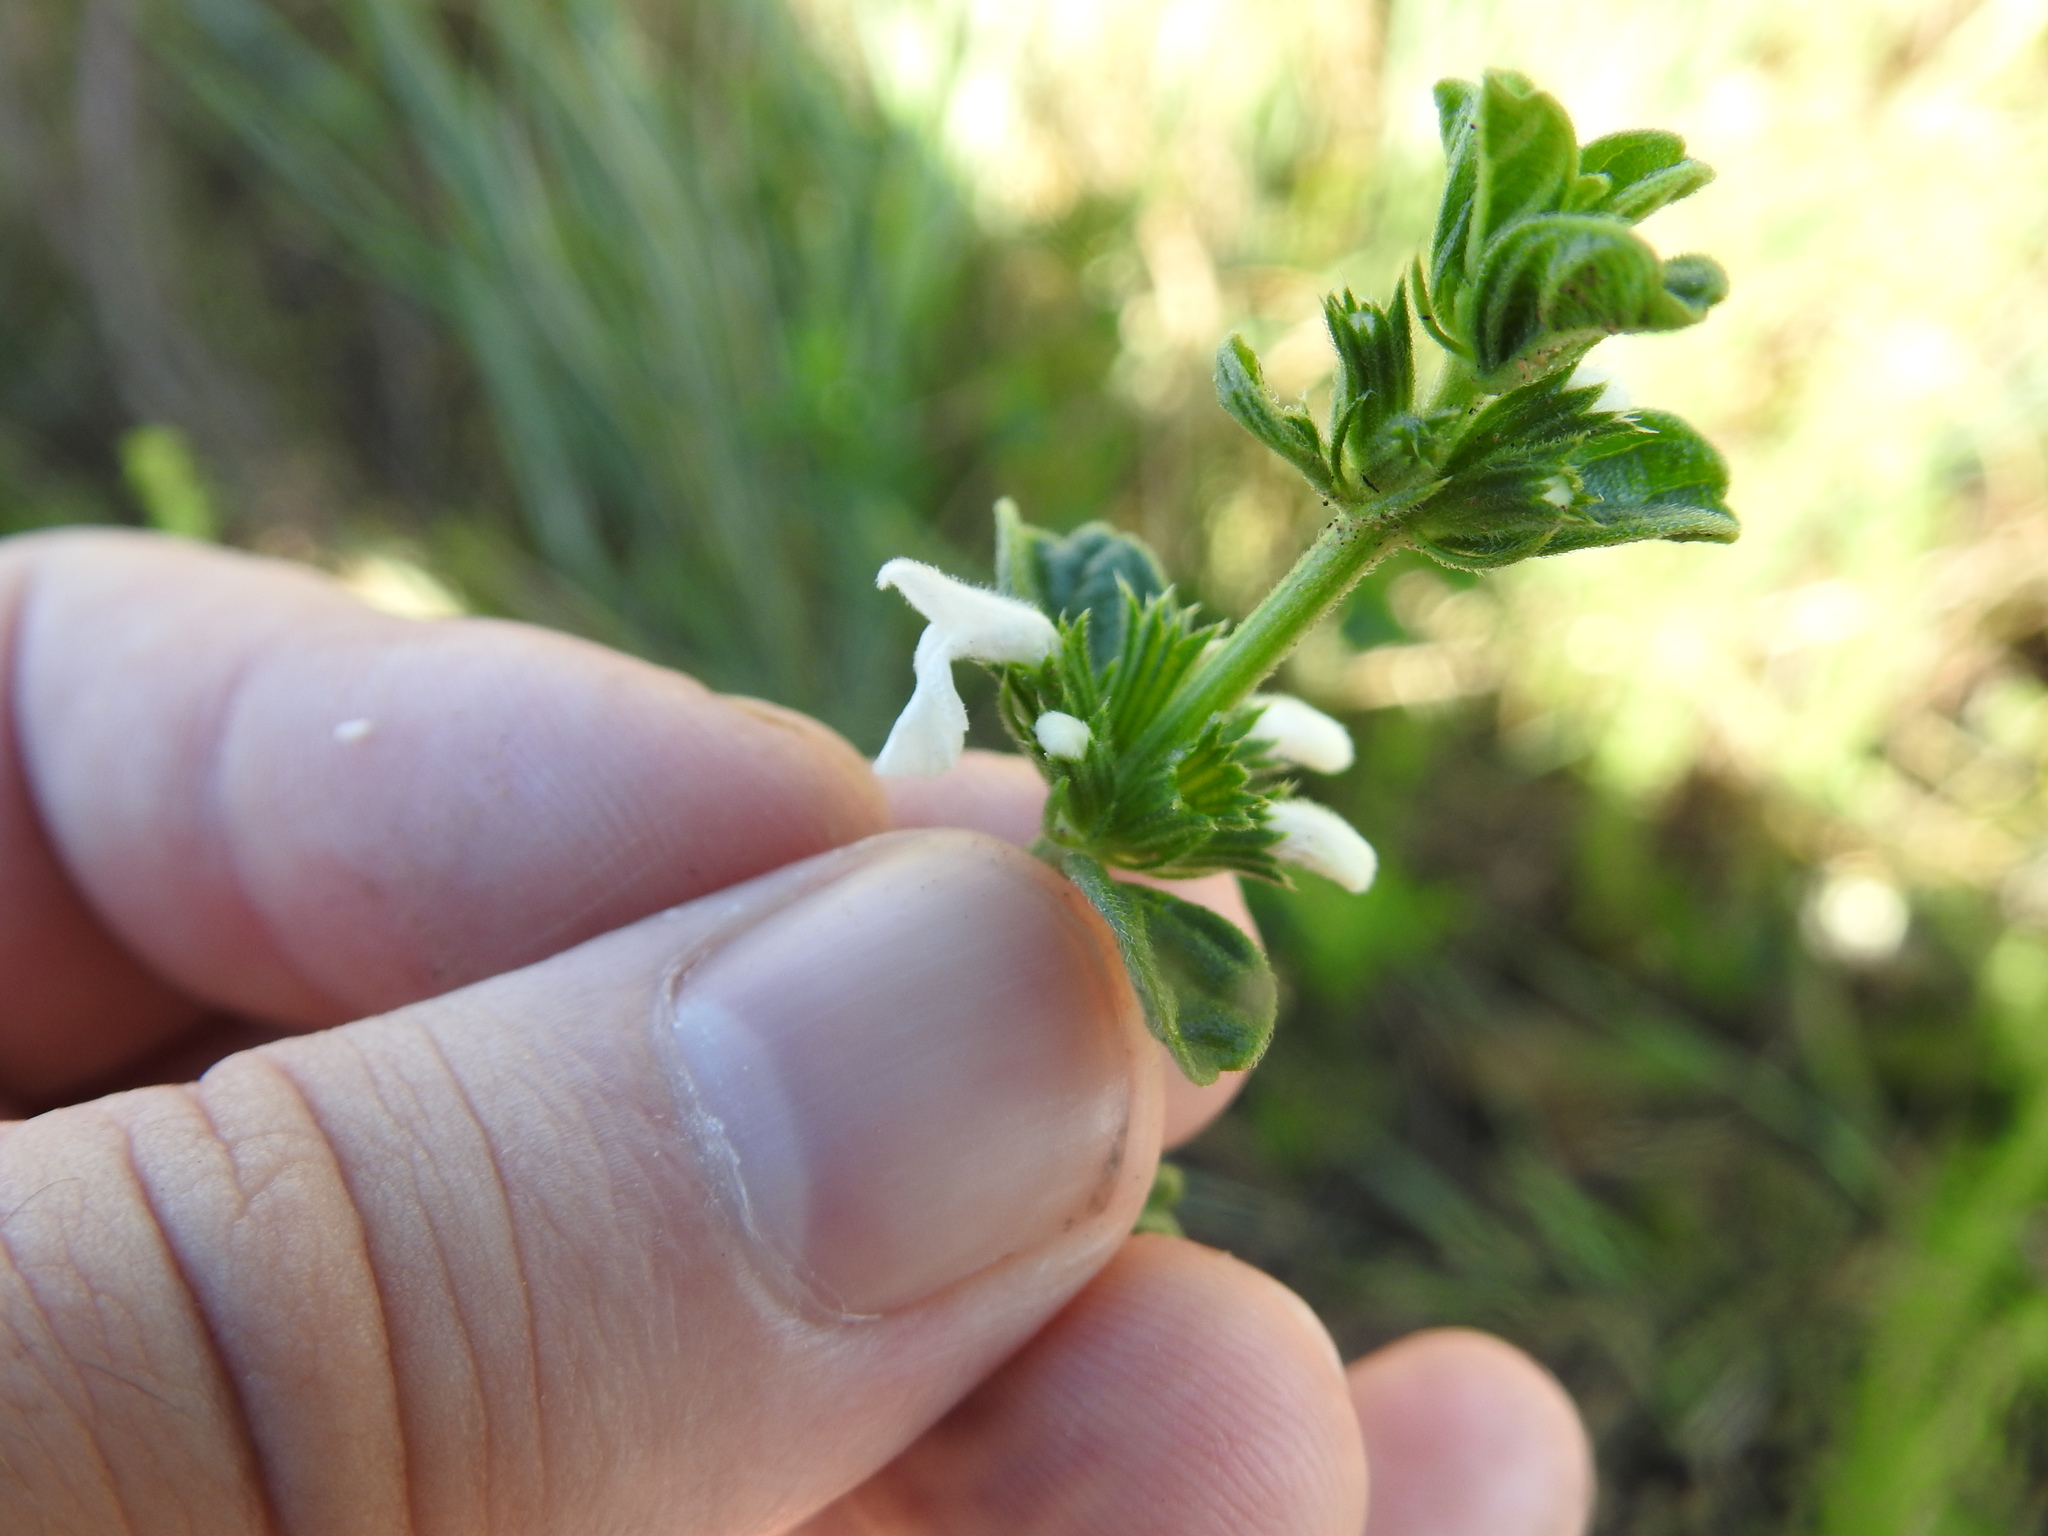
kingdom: Plantae
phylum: Tracheophyta
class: Magnoliopsida
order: Lamiales
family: Lamiaceae
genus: Acrotome
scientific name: Acrotome hispida
